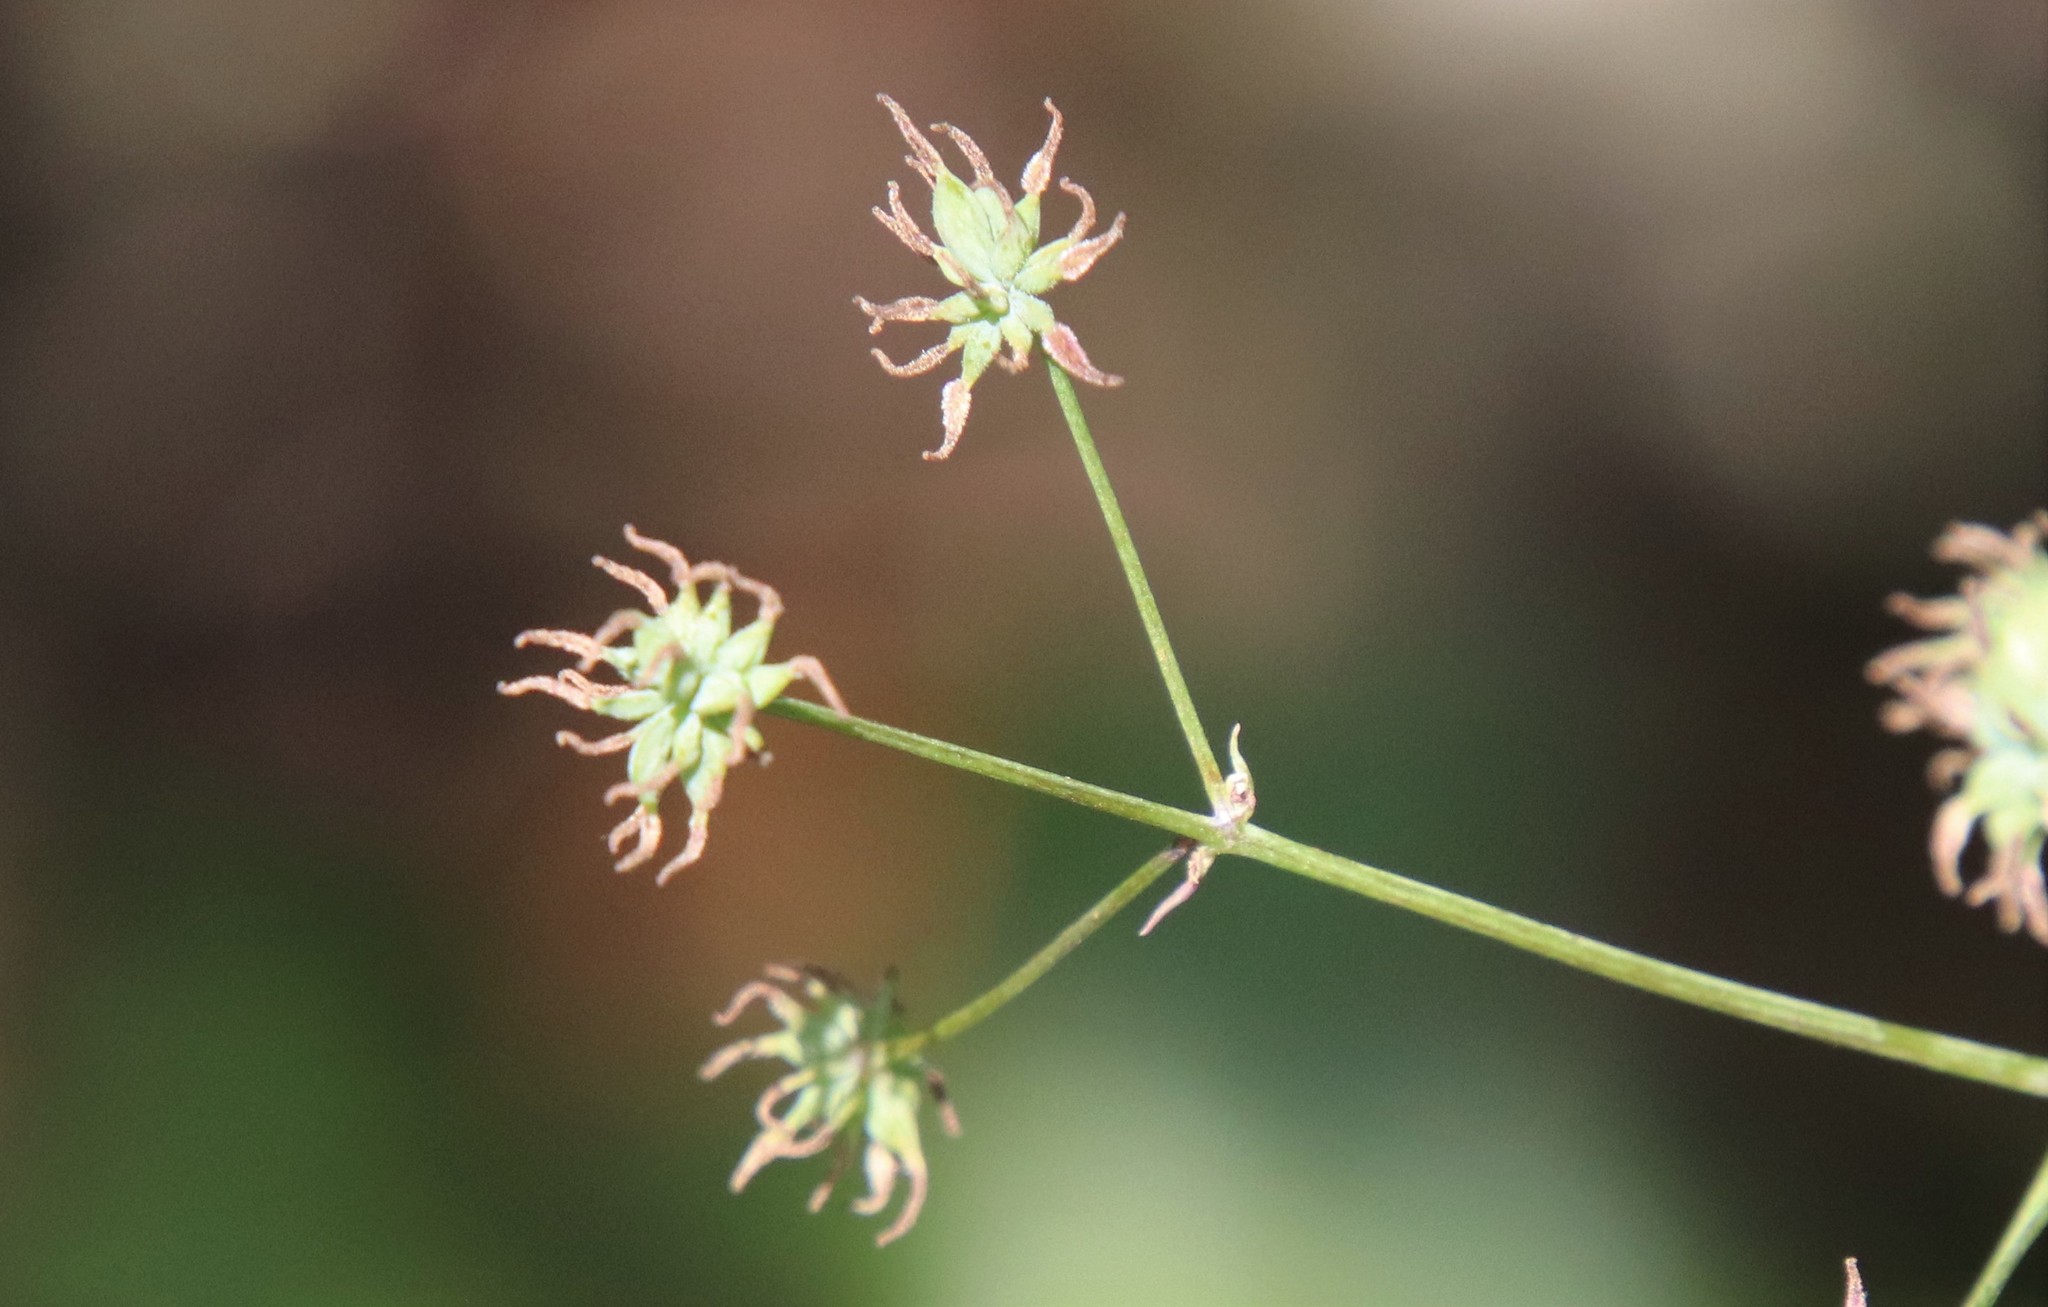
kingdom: Plantae
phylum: Tracheophyta
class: Magnoliopsida
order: Ranunculales
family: Ranunculaceae
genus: Thalictrum
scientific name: Thalictrum fendleri
